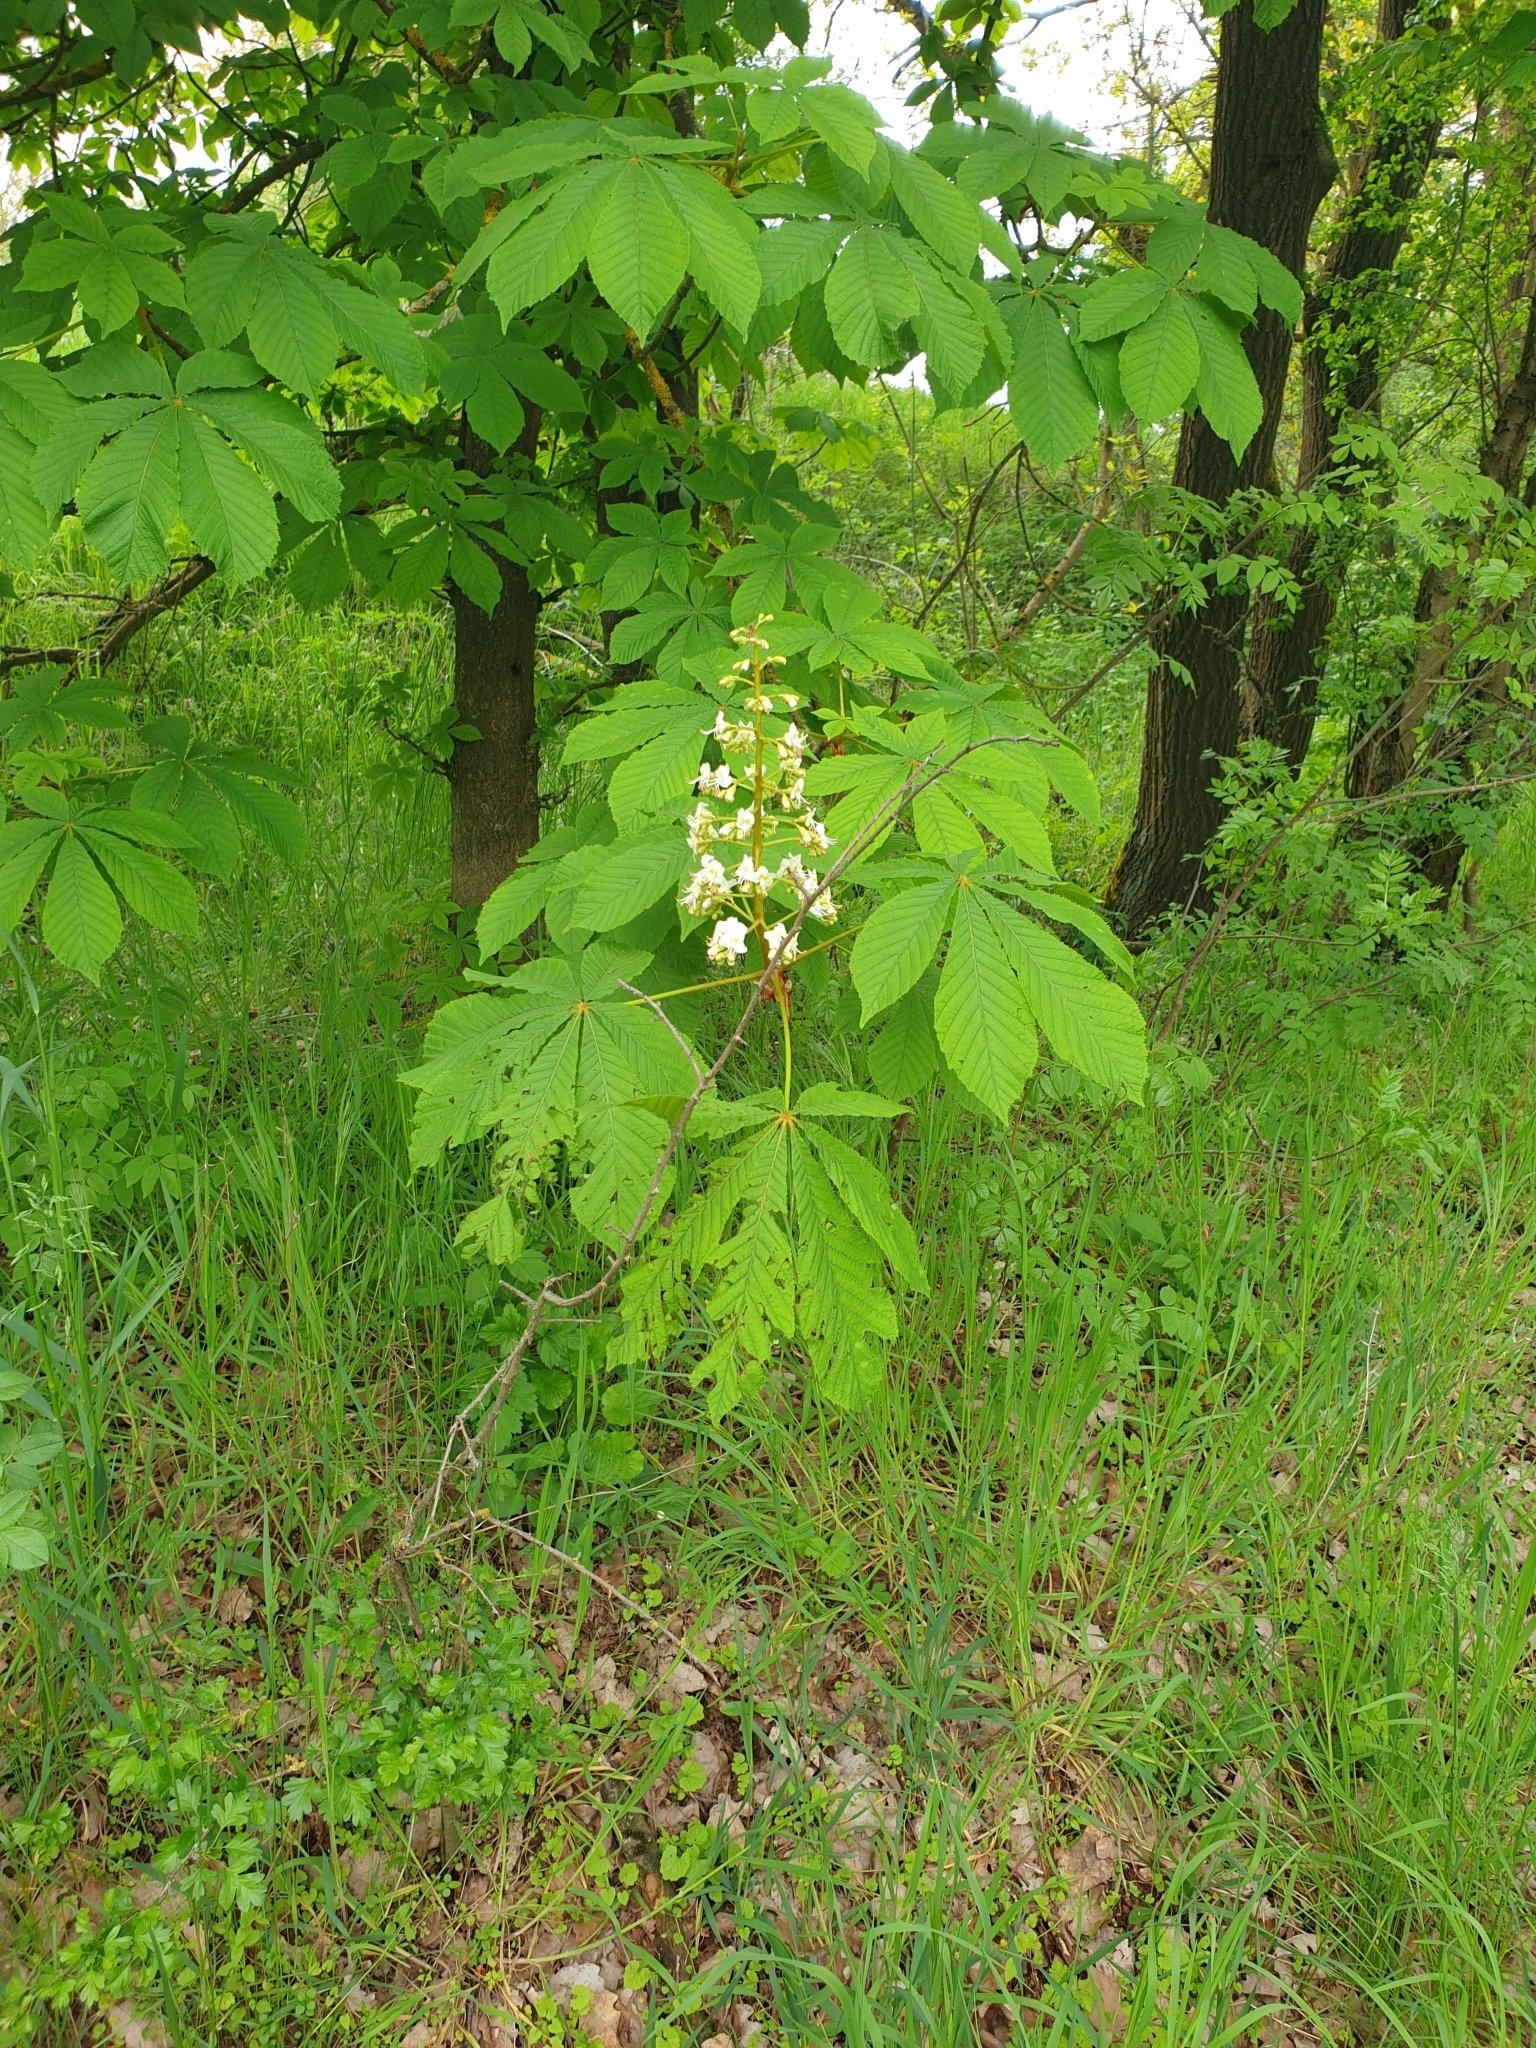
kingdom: Plantae
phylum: Tracheophyta
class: Magnoliopsida
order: Sapindales
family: Sapindaceae
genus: Aesculus
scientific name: Aesculus hippocastanum
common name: Horse-chestnut
